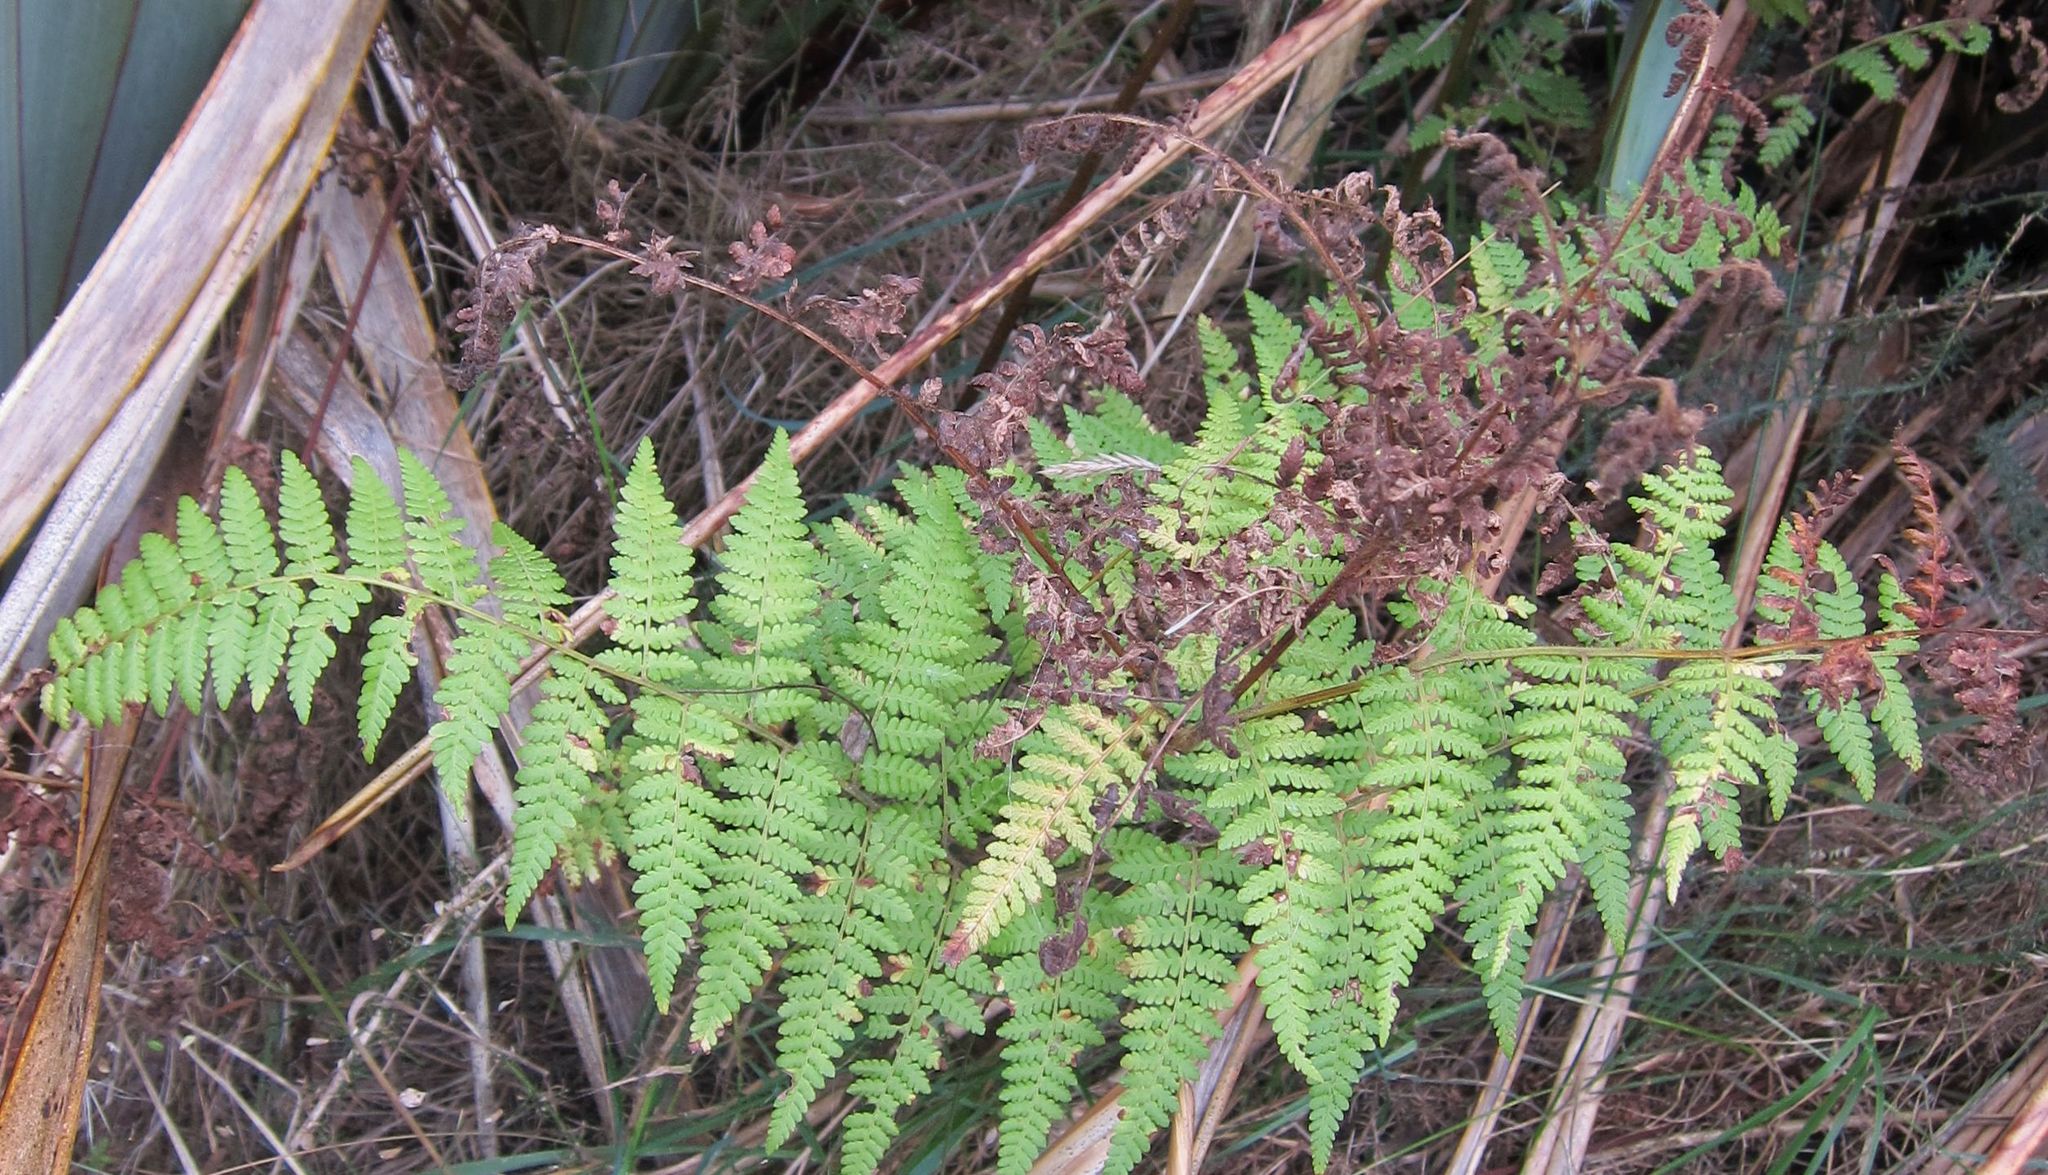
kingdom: Plantae
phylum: Tracheophyta
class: Polypodiopsida
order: Polypodiales
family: Dennstaedtiaceae
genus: Hypolepis
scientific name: Hypolepis ambigua
